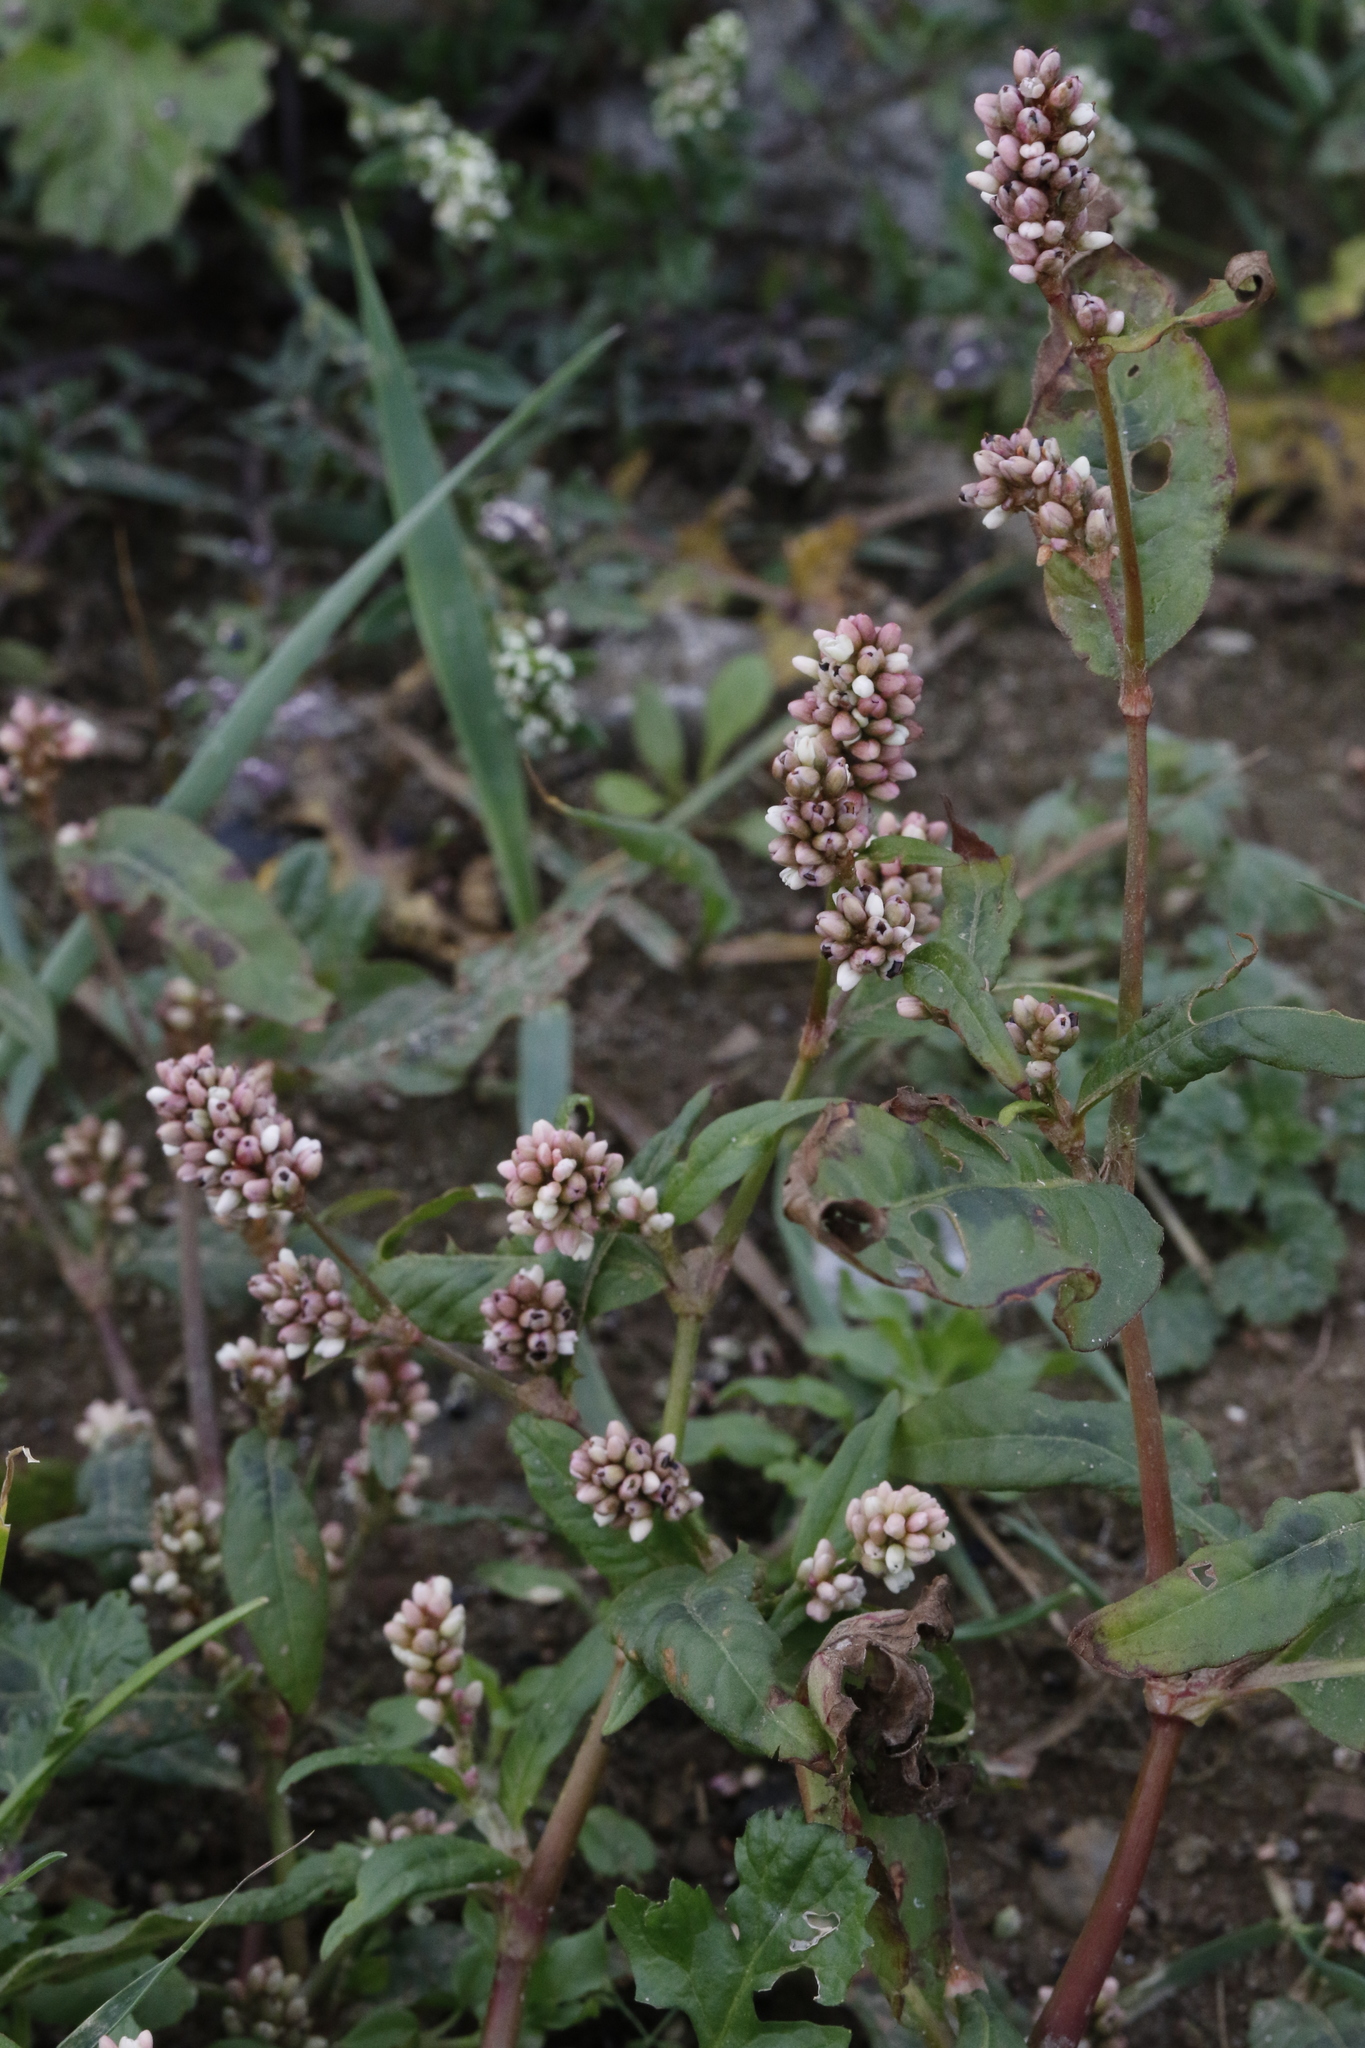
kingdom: Plantae
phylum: Tracheophyta
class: Magnoliopsida
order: Caryophyllales
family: Polygonaceae
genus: Persicaria
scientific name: Persicaria maculosa
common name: Redshank
